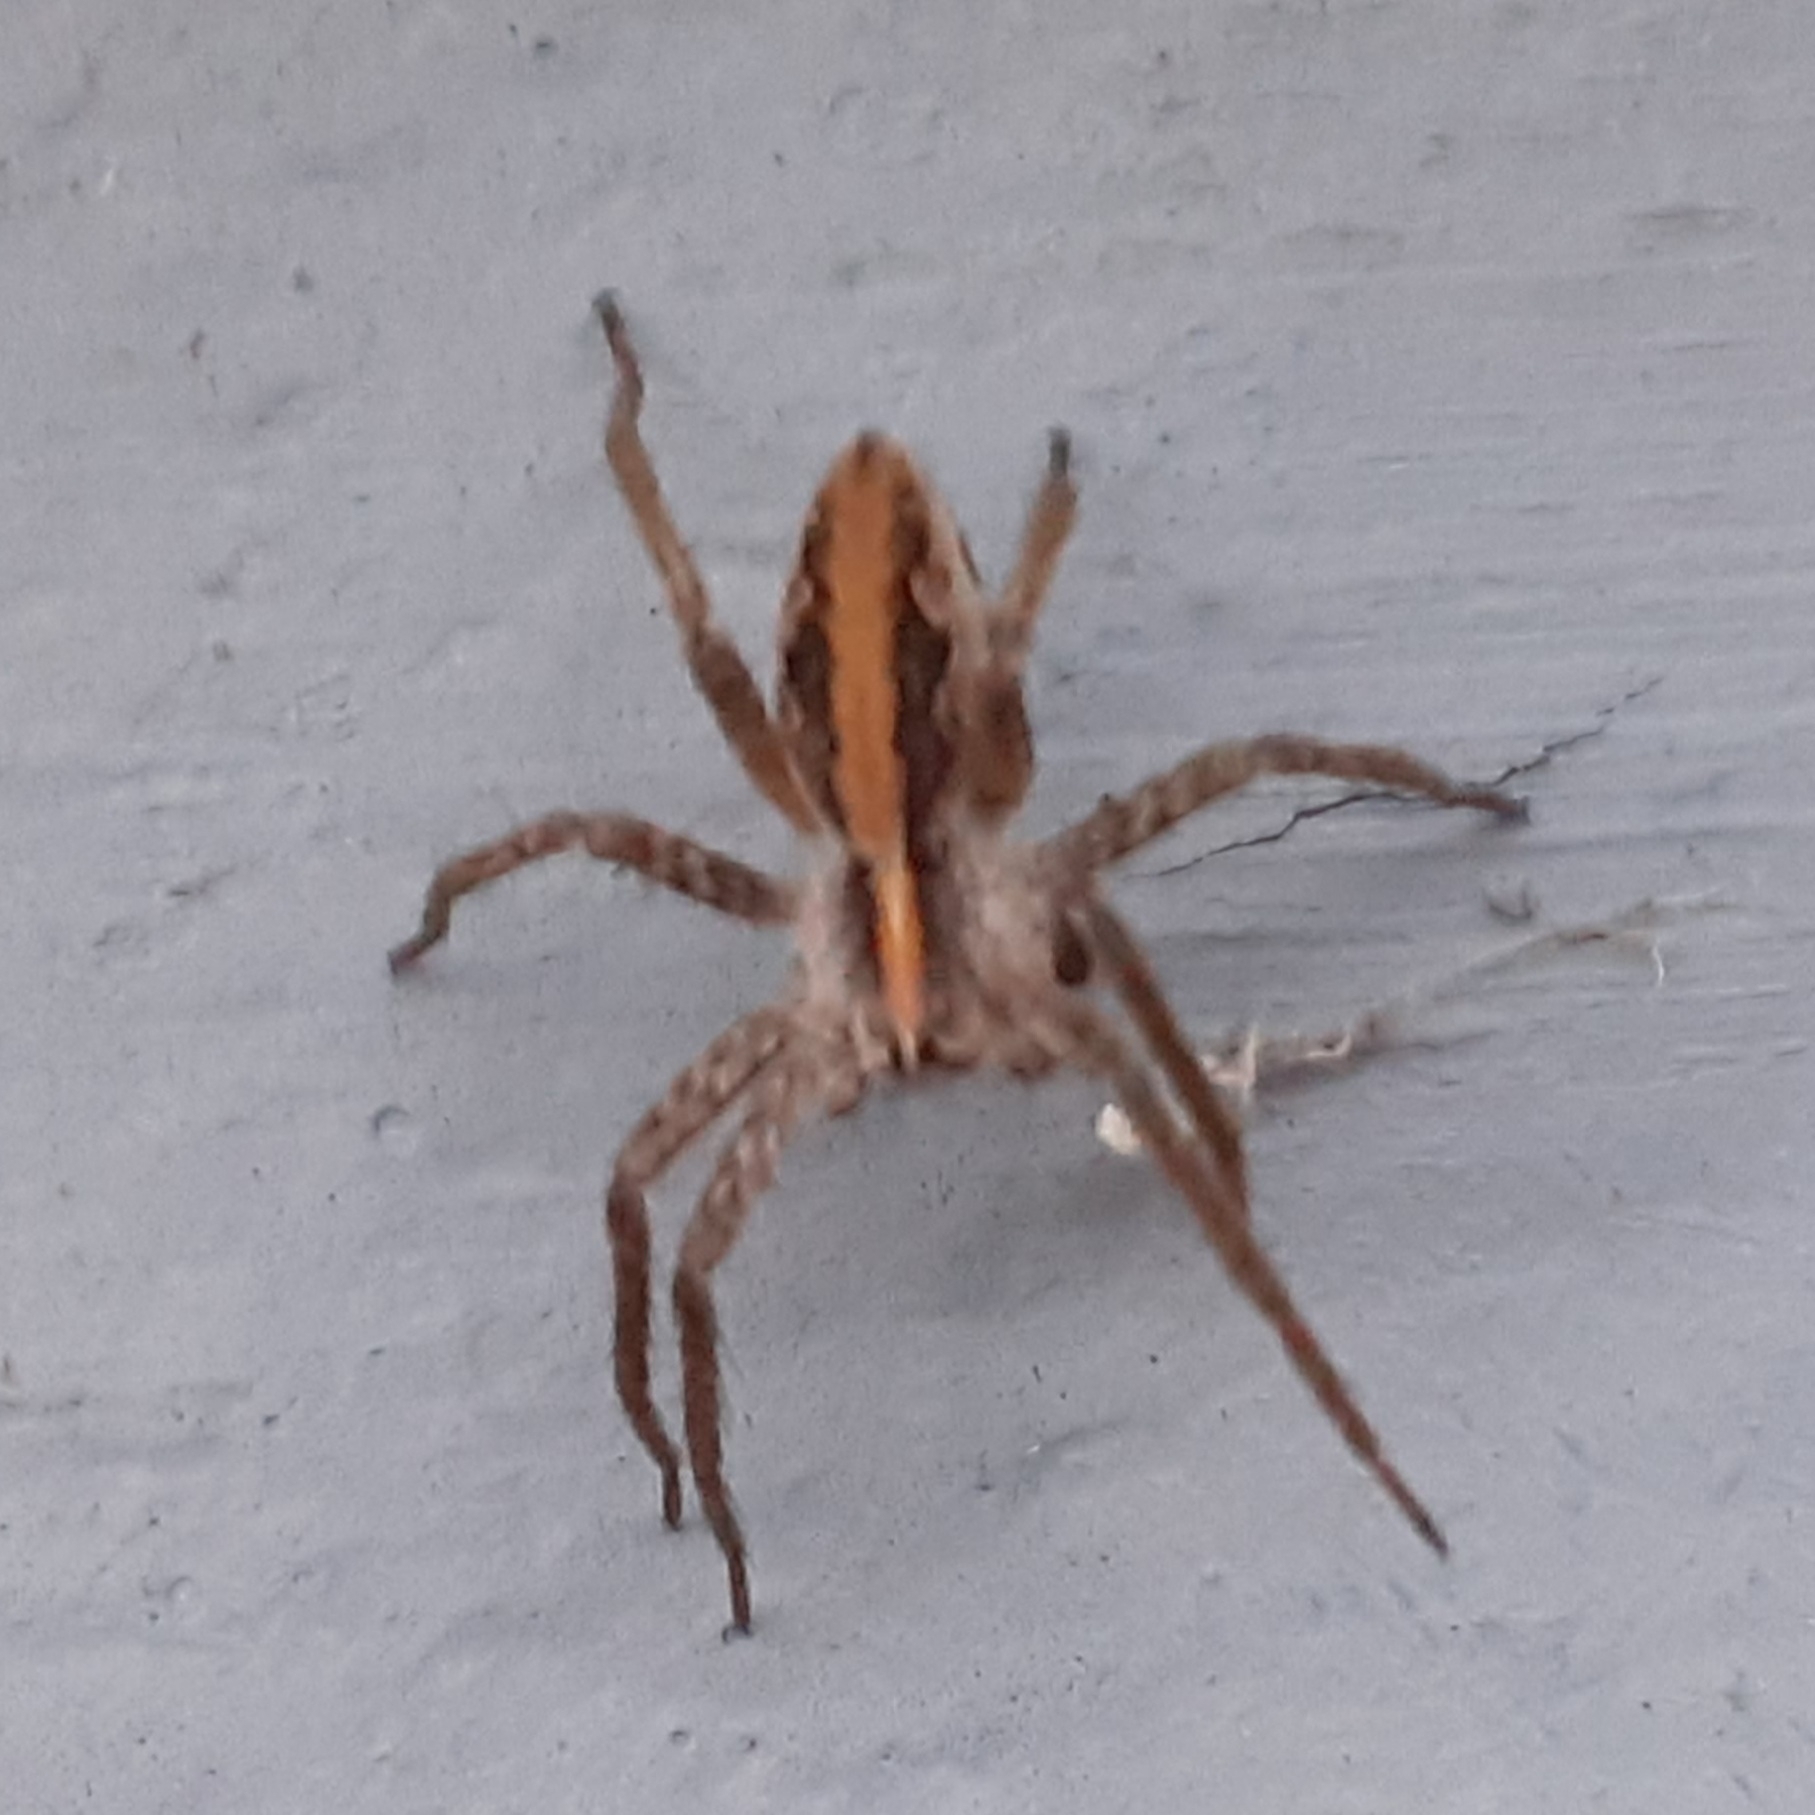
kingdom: Animalia
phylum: Arthropoda
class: Arachnida
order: Araneae
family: Pisauridae
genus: Pisaura
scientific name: Pisaura mirabilis
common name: Tent spider
